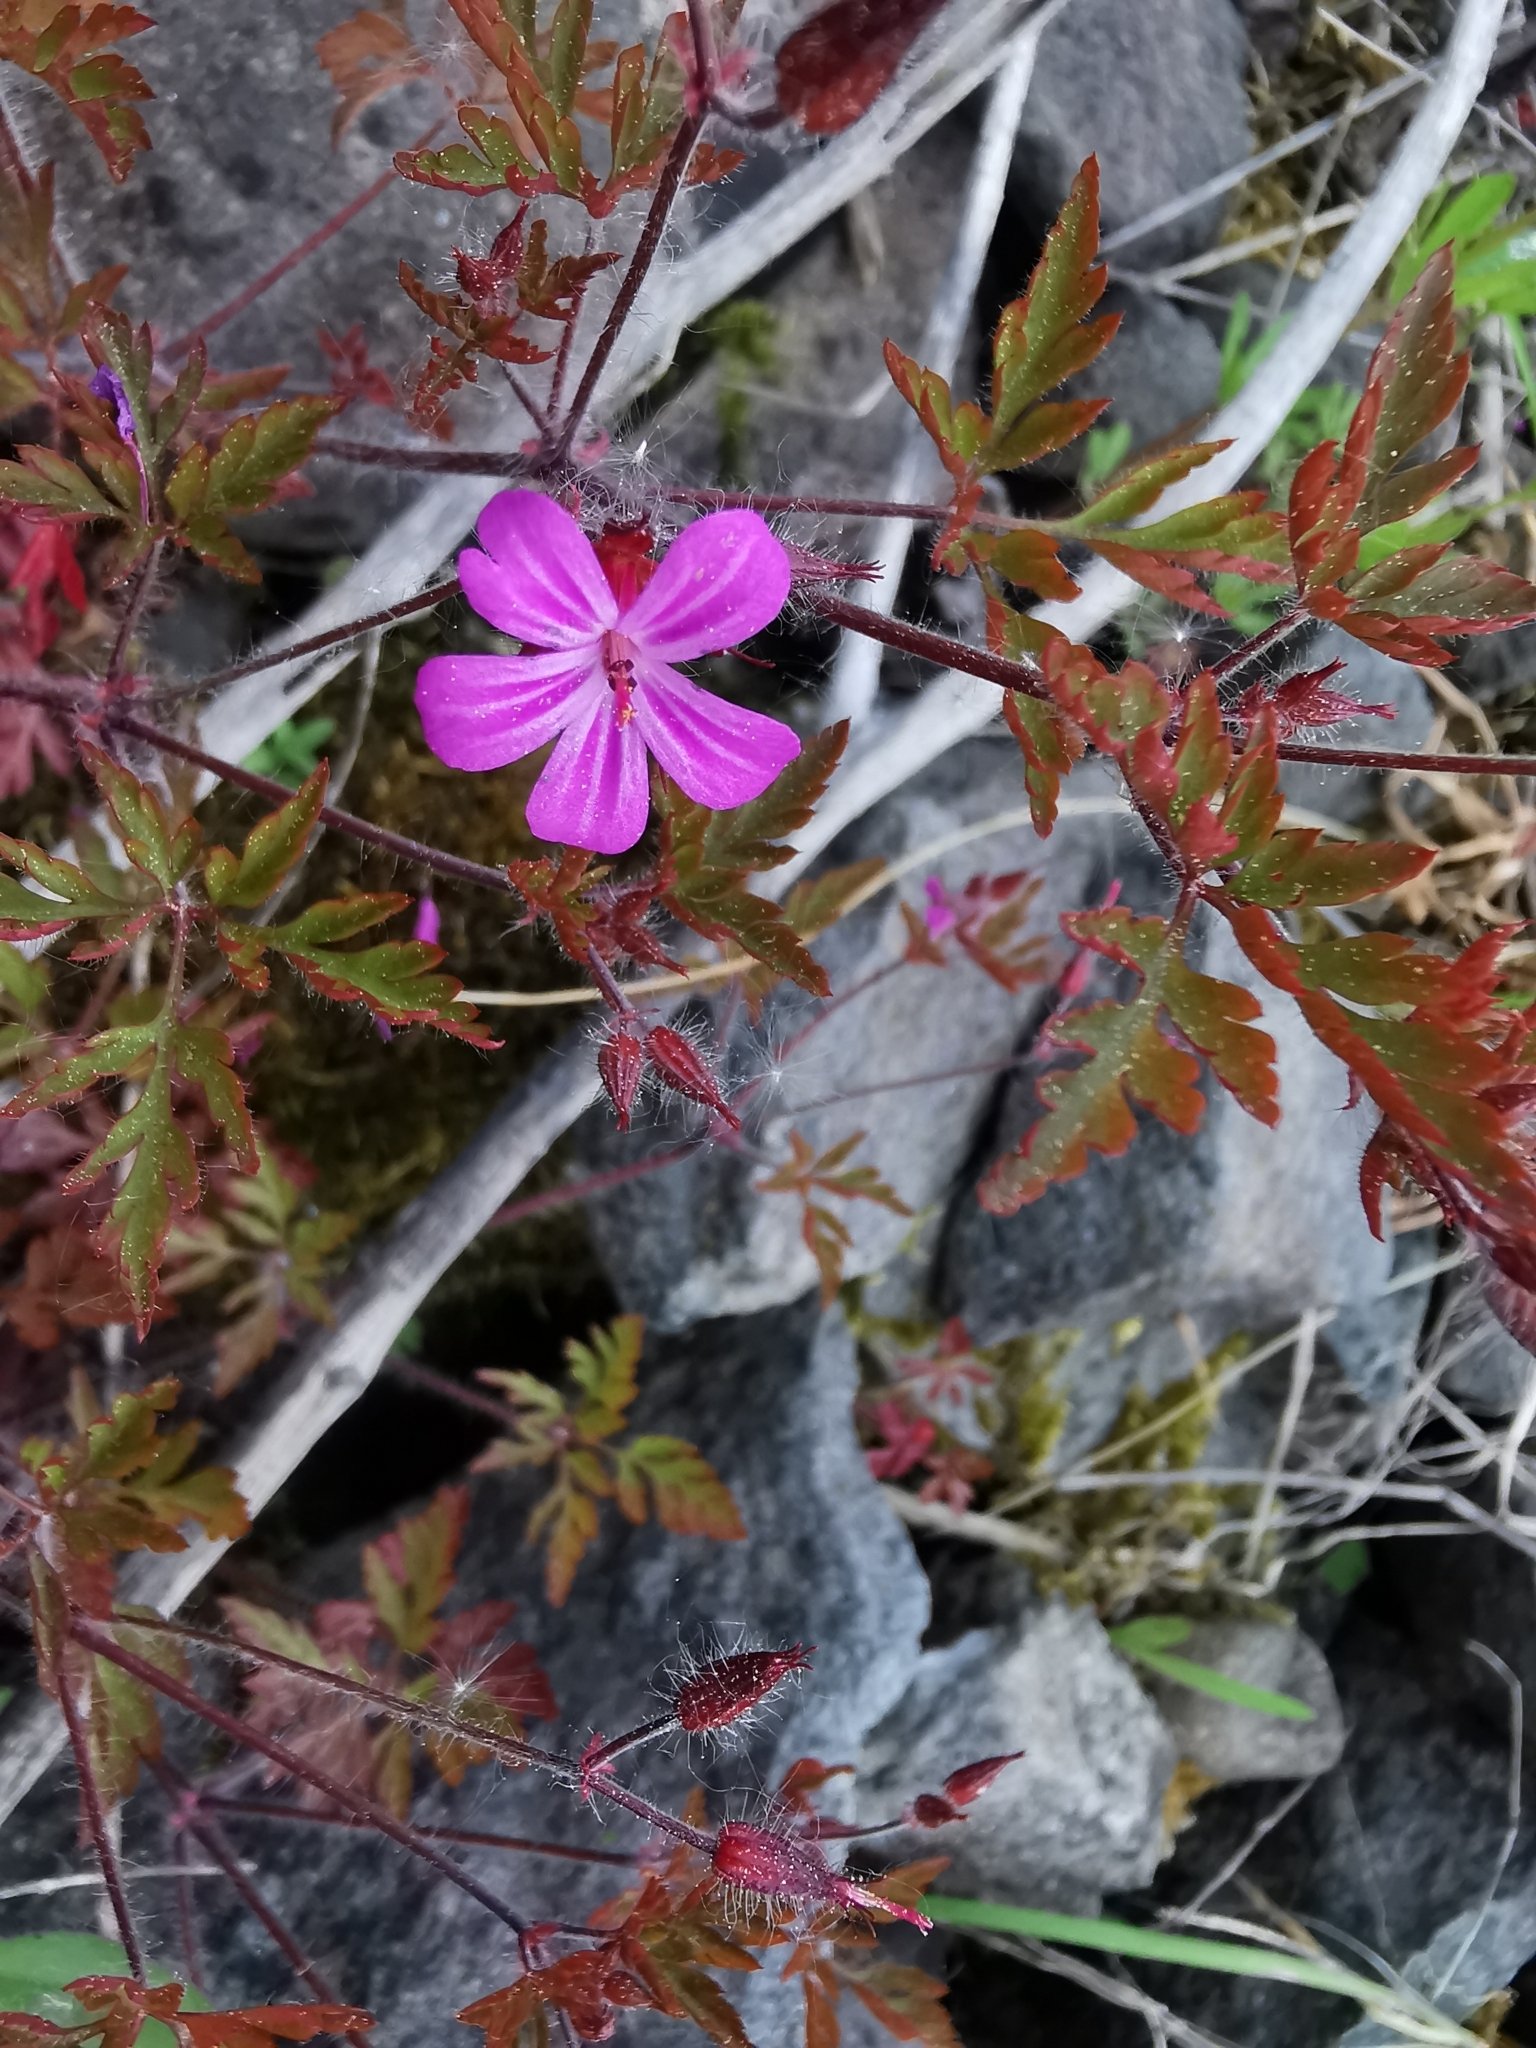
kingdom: Plantae
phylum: Tracheophyta
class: Magnoliopsida
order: Geraniales
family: Geraniaceae
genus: Geranium
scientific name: Geranium robertianum
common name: Herb-robert
